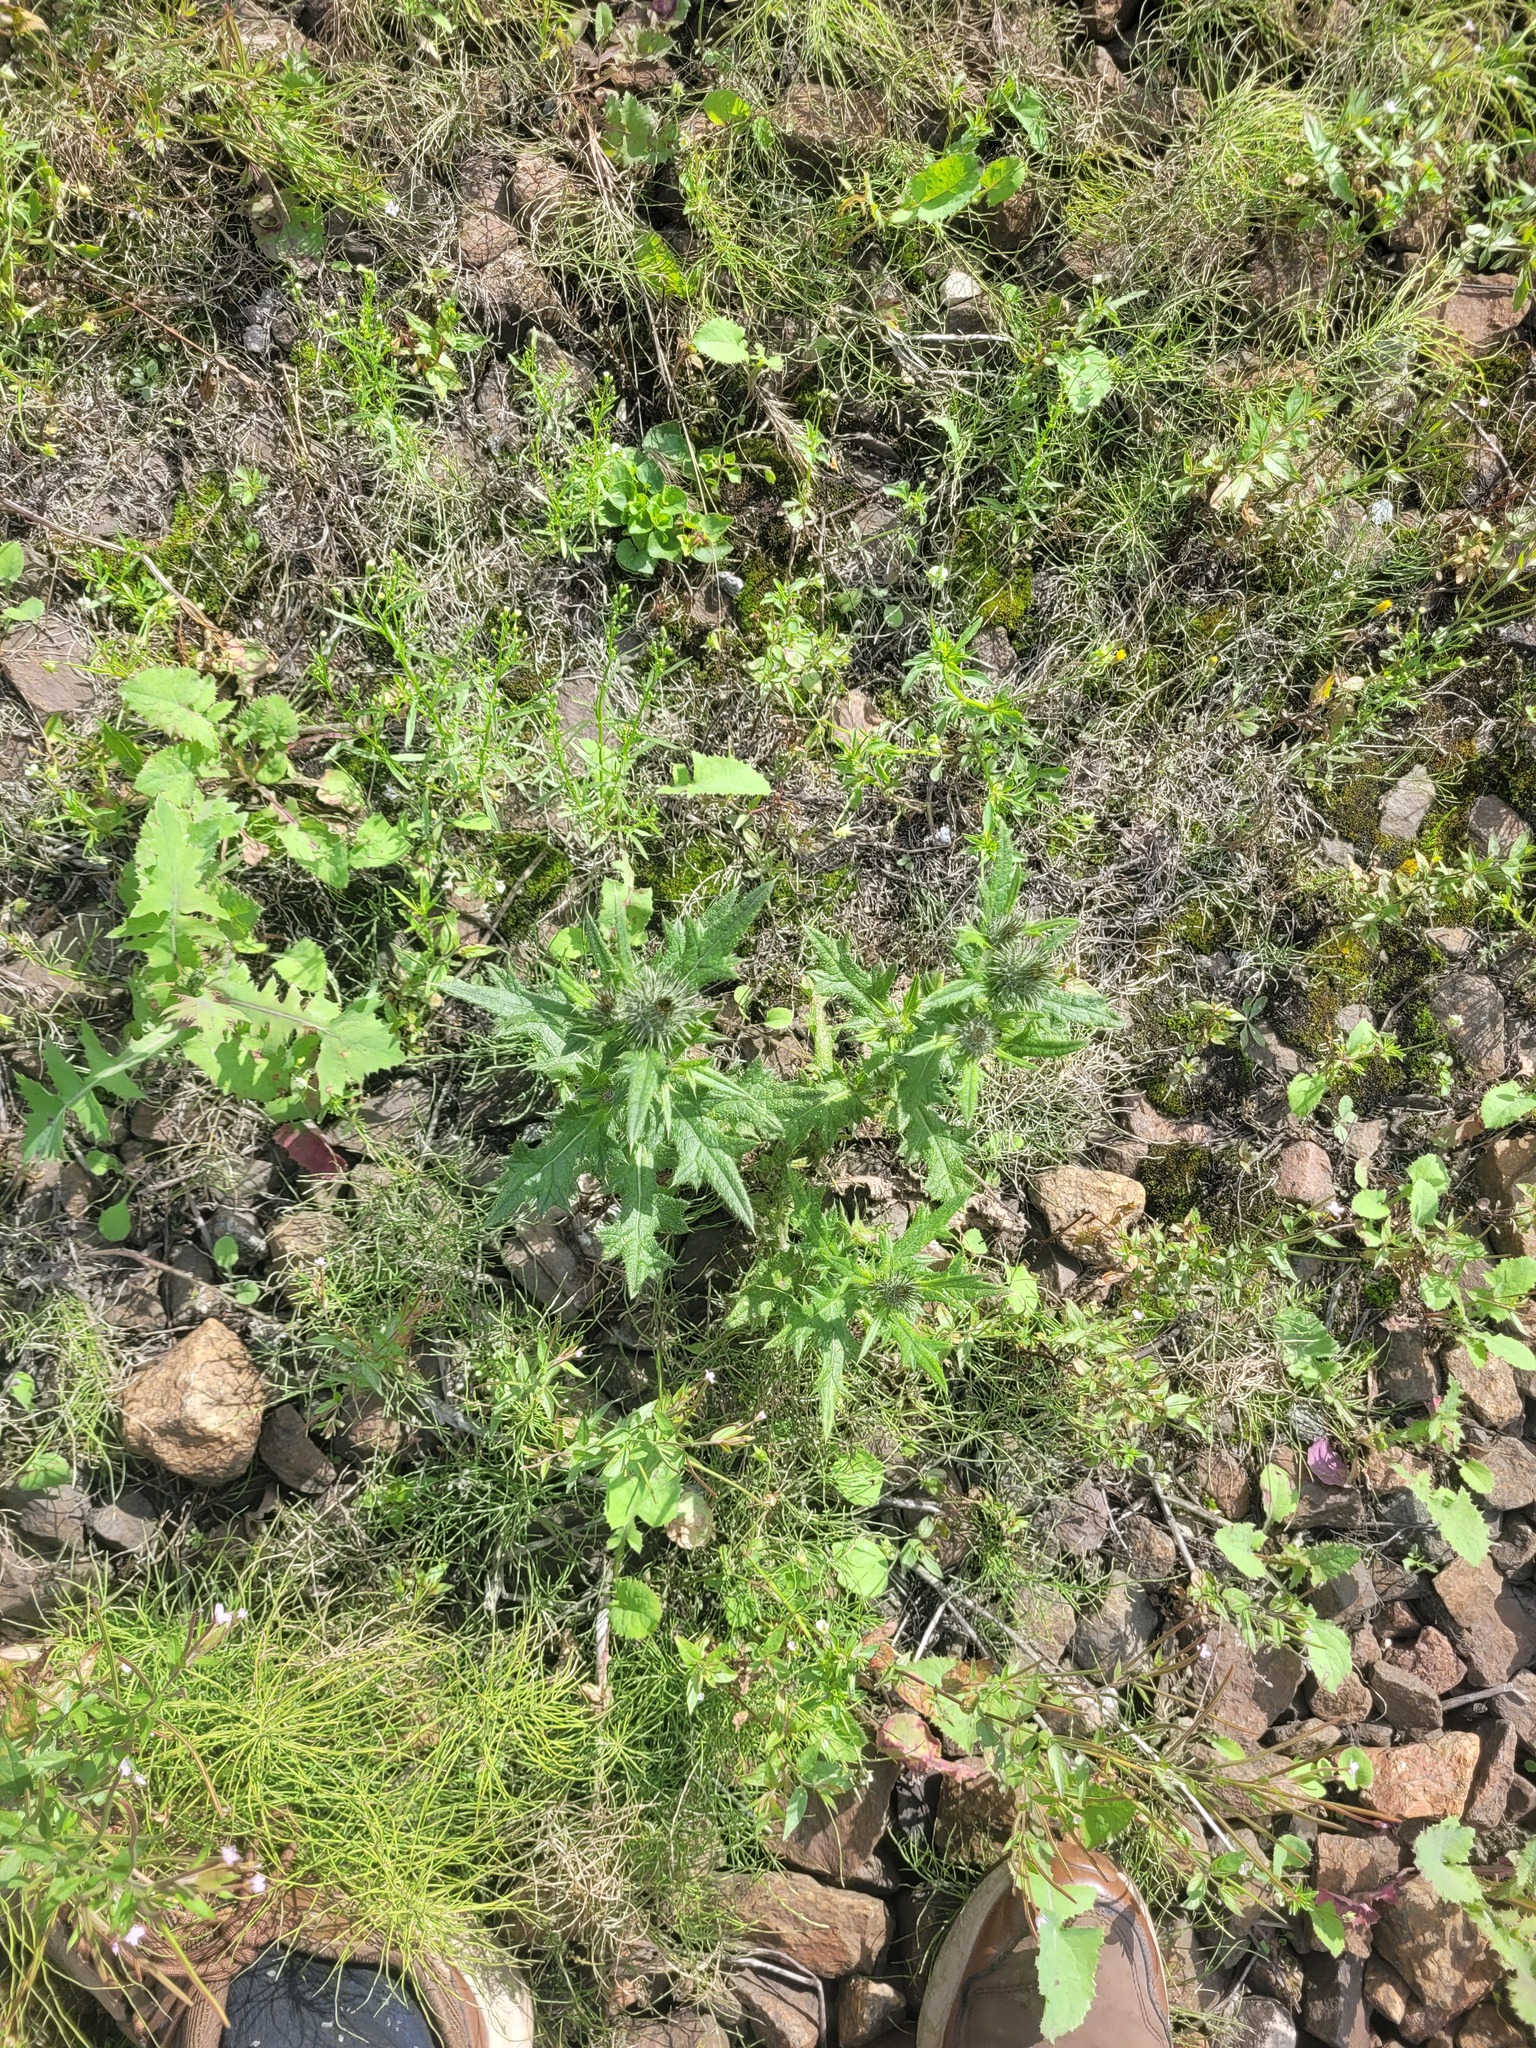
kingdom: Plantae
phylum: Tracheophyta
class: Magnoliopsida
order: Asterales
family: Asteraceae
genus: Cirsium
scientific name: Cirsium vulgare
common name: Bull thistle
